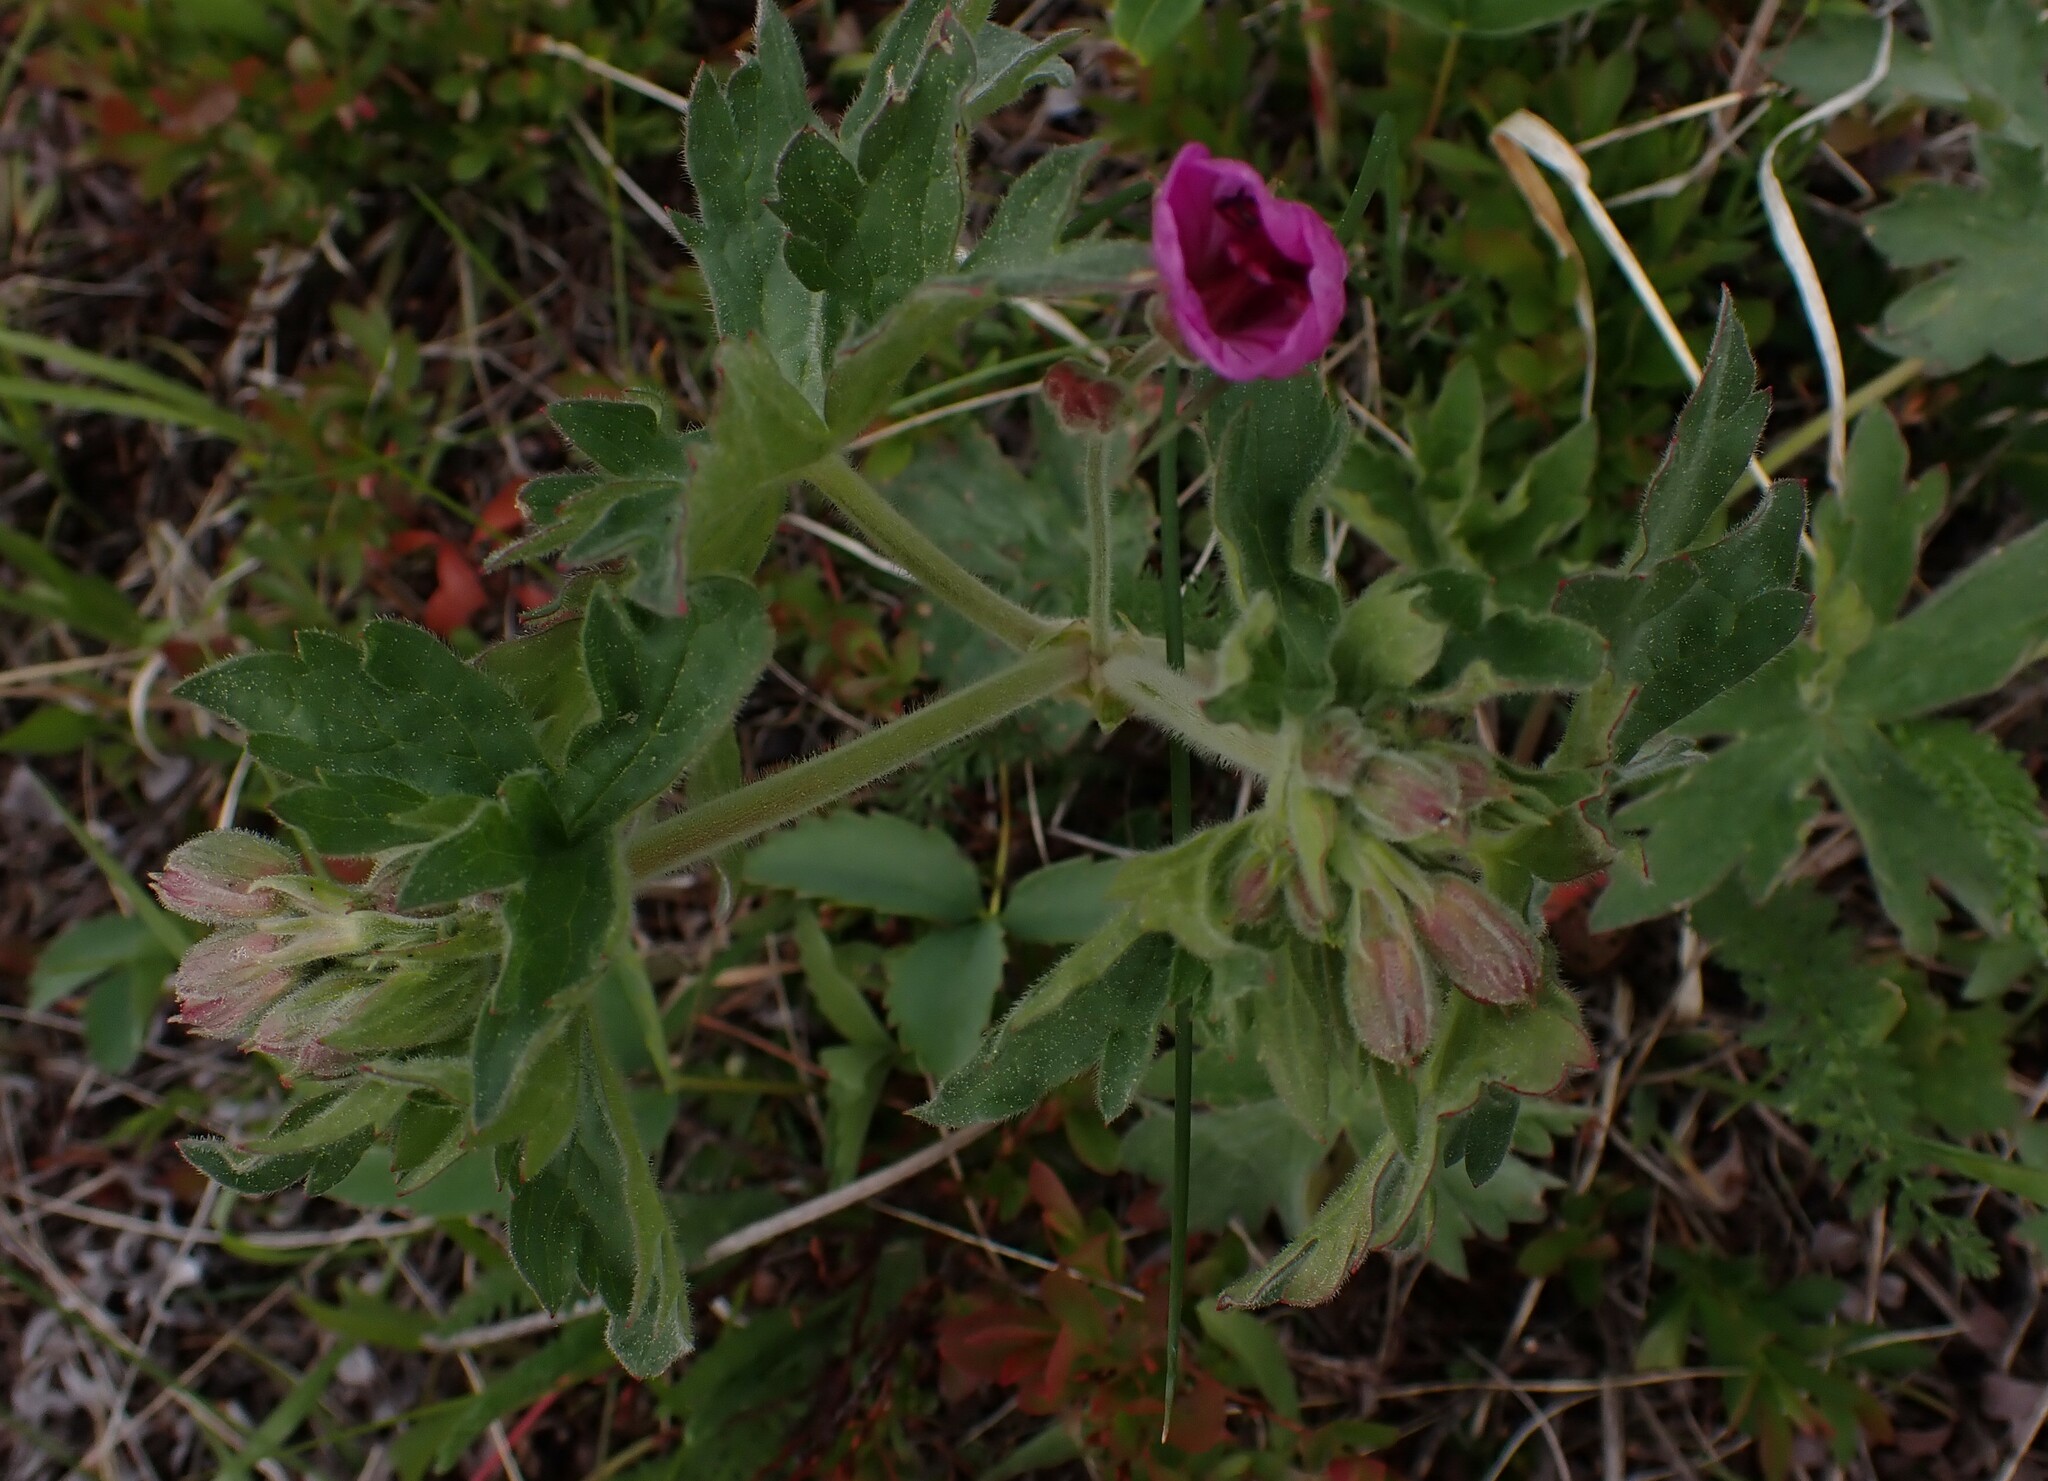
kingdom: Plantae
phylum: Tracheophyta
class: Magnoliopsida
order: Geraniales
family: Geraniaceae
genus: Geranium
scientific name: Geranium viscosissimum
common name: Purple geranium
